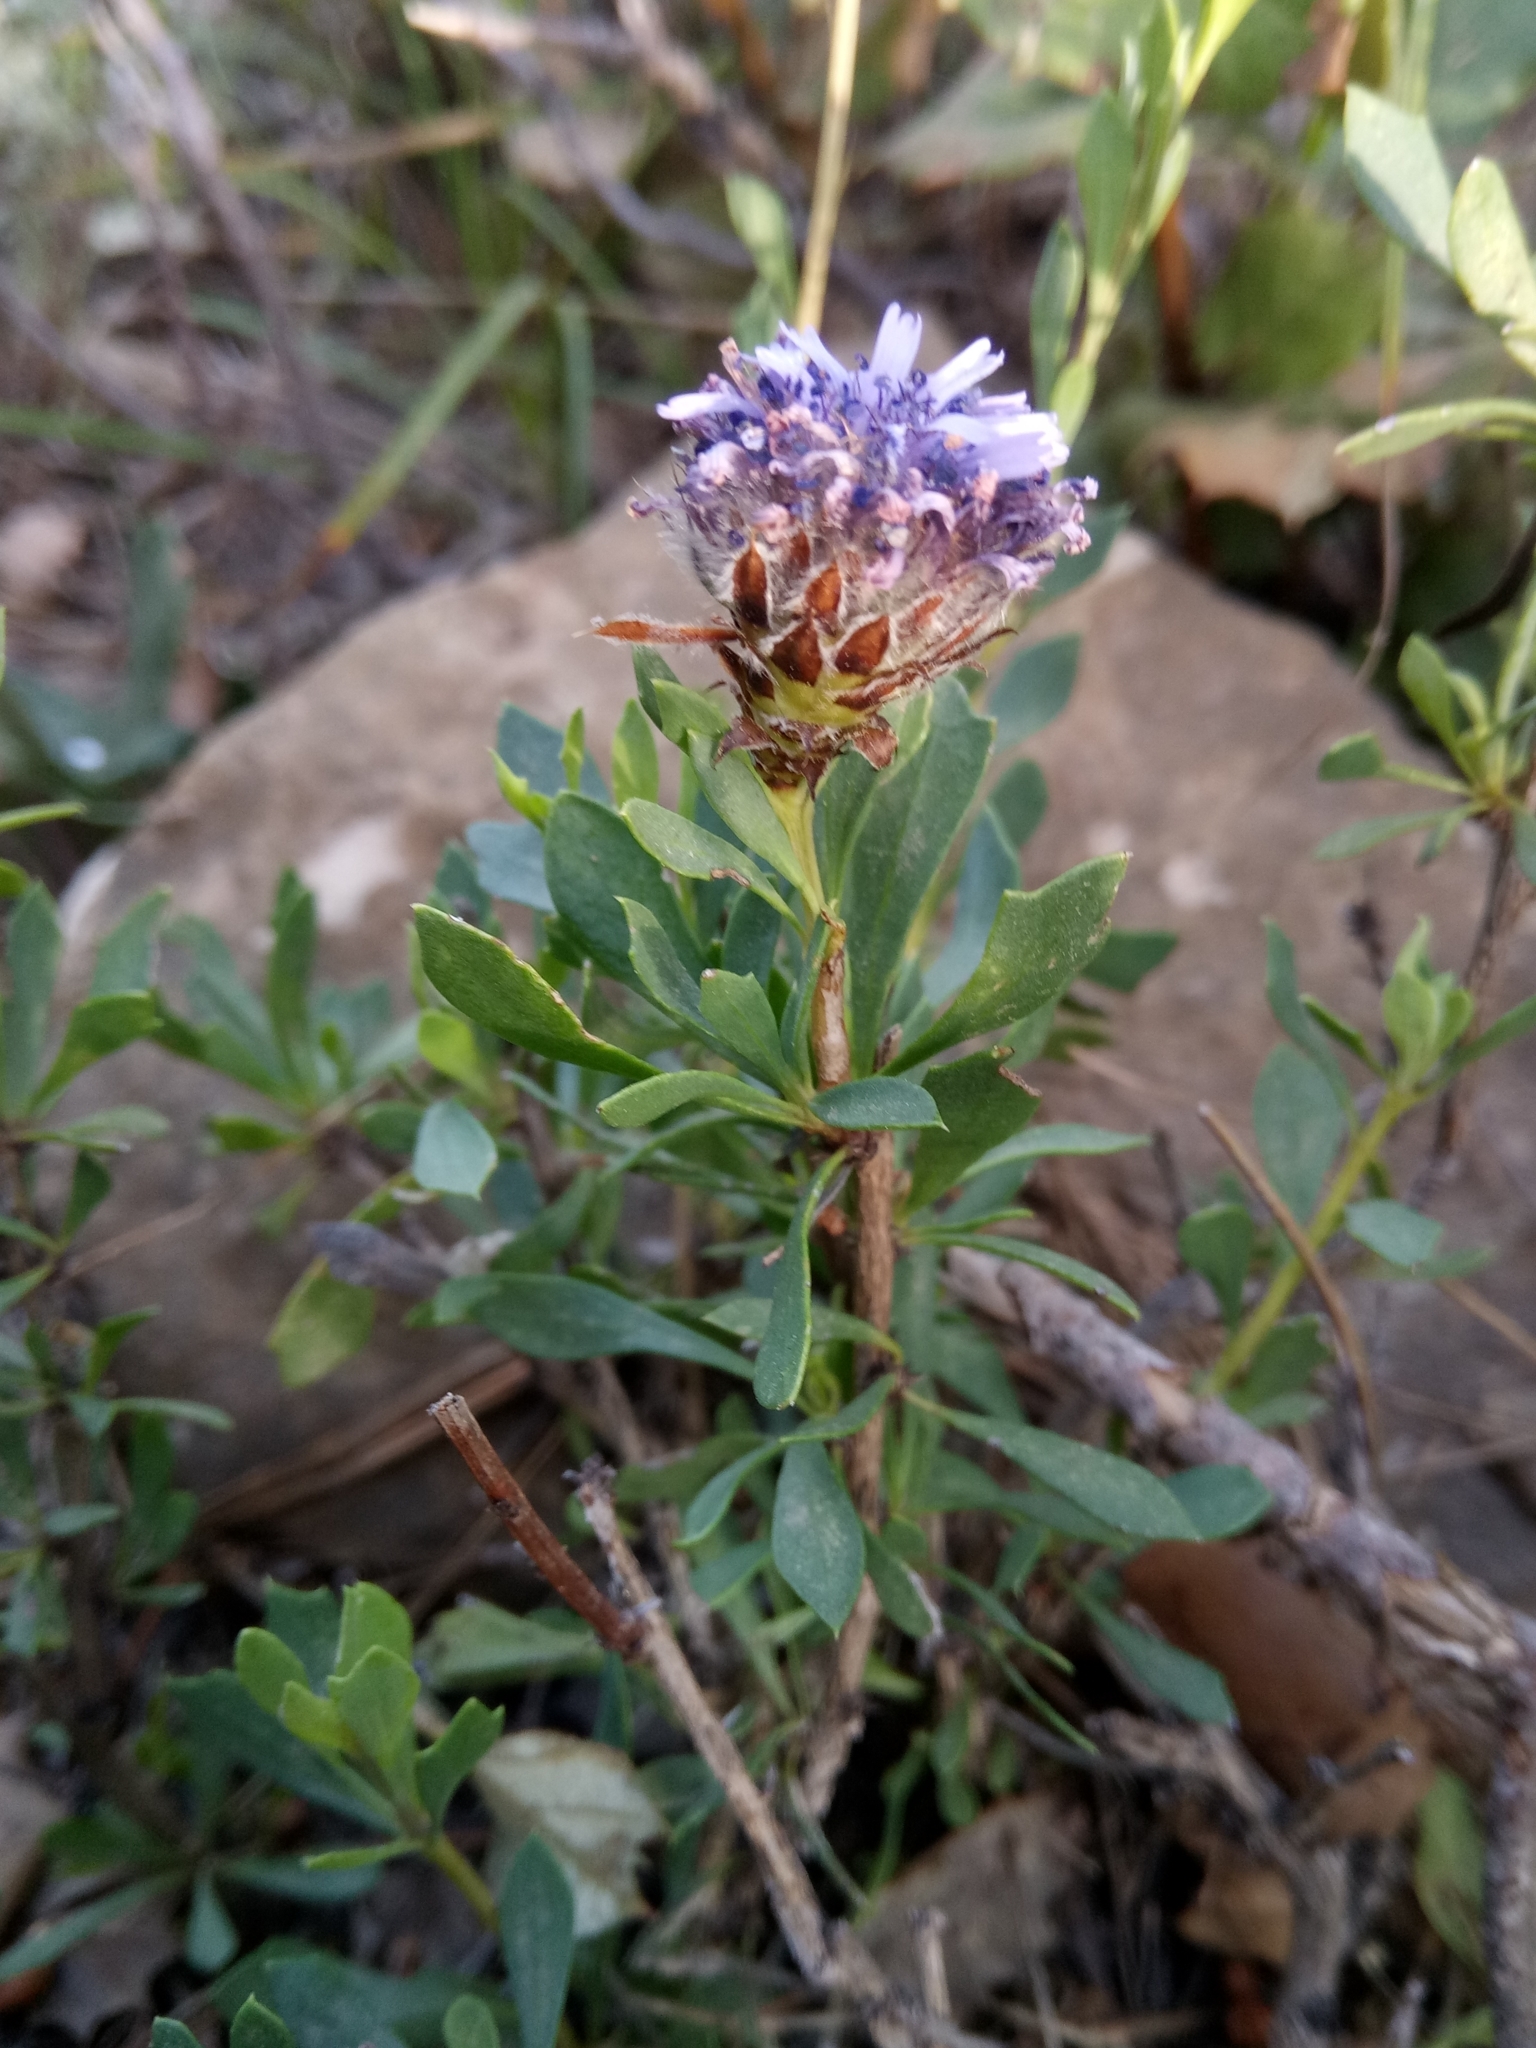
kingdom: Plantae
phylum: Tracheophyta
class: Magnoliopsida
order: Lamiales
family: Plantaginaceae
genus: Globularia
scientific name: Globularia alypum
